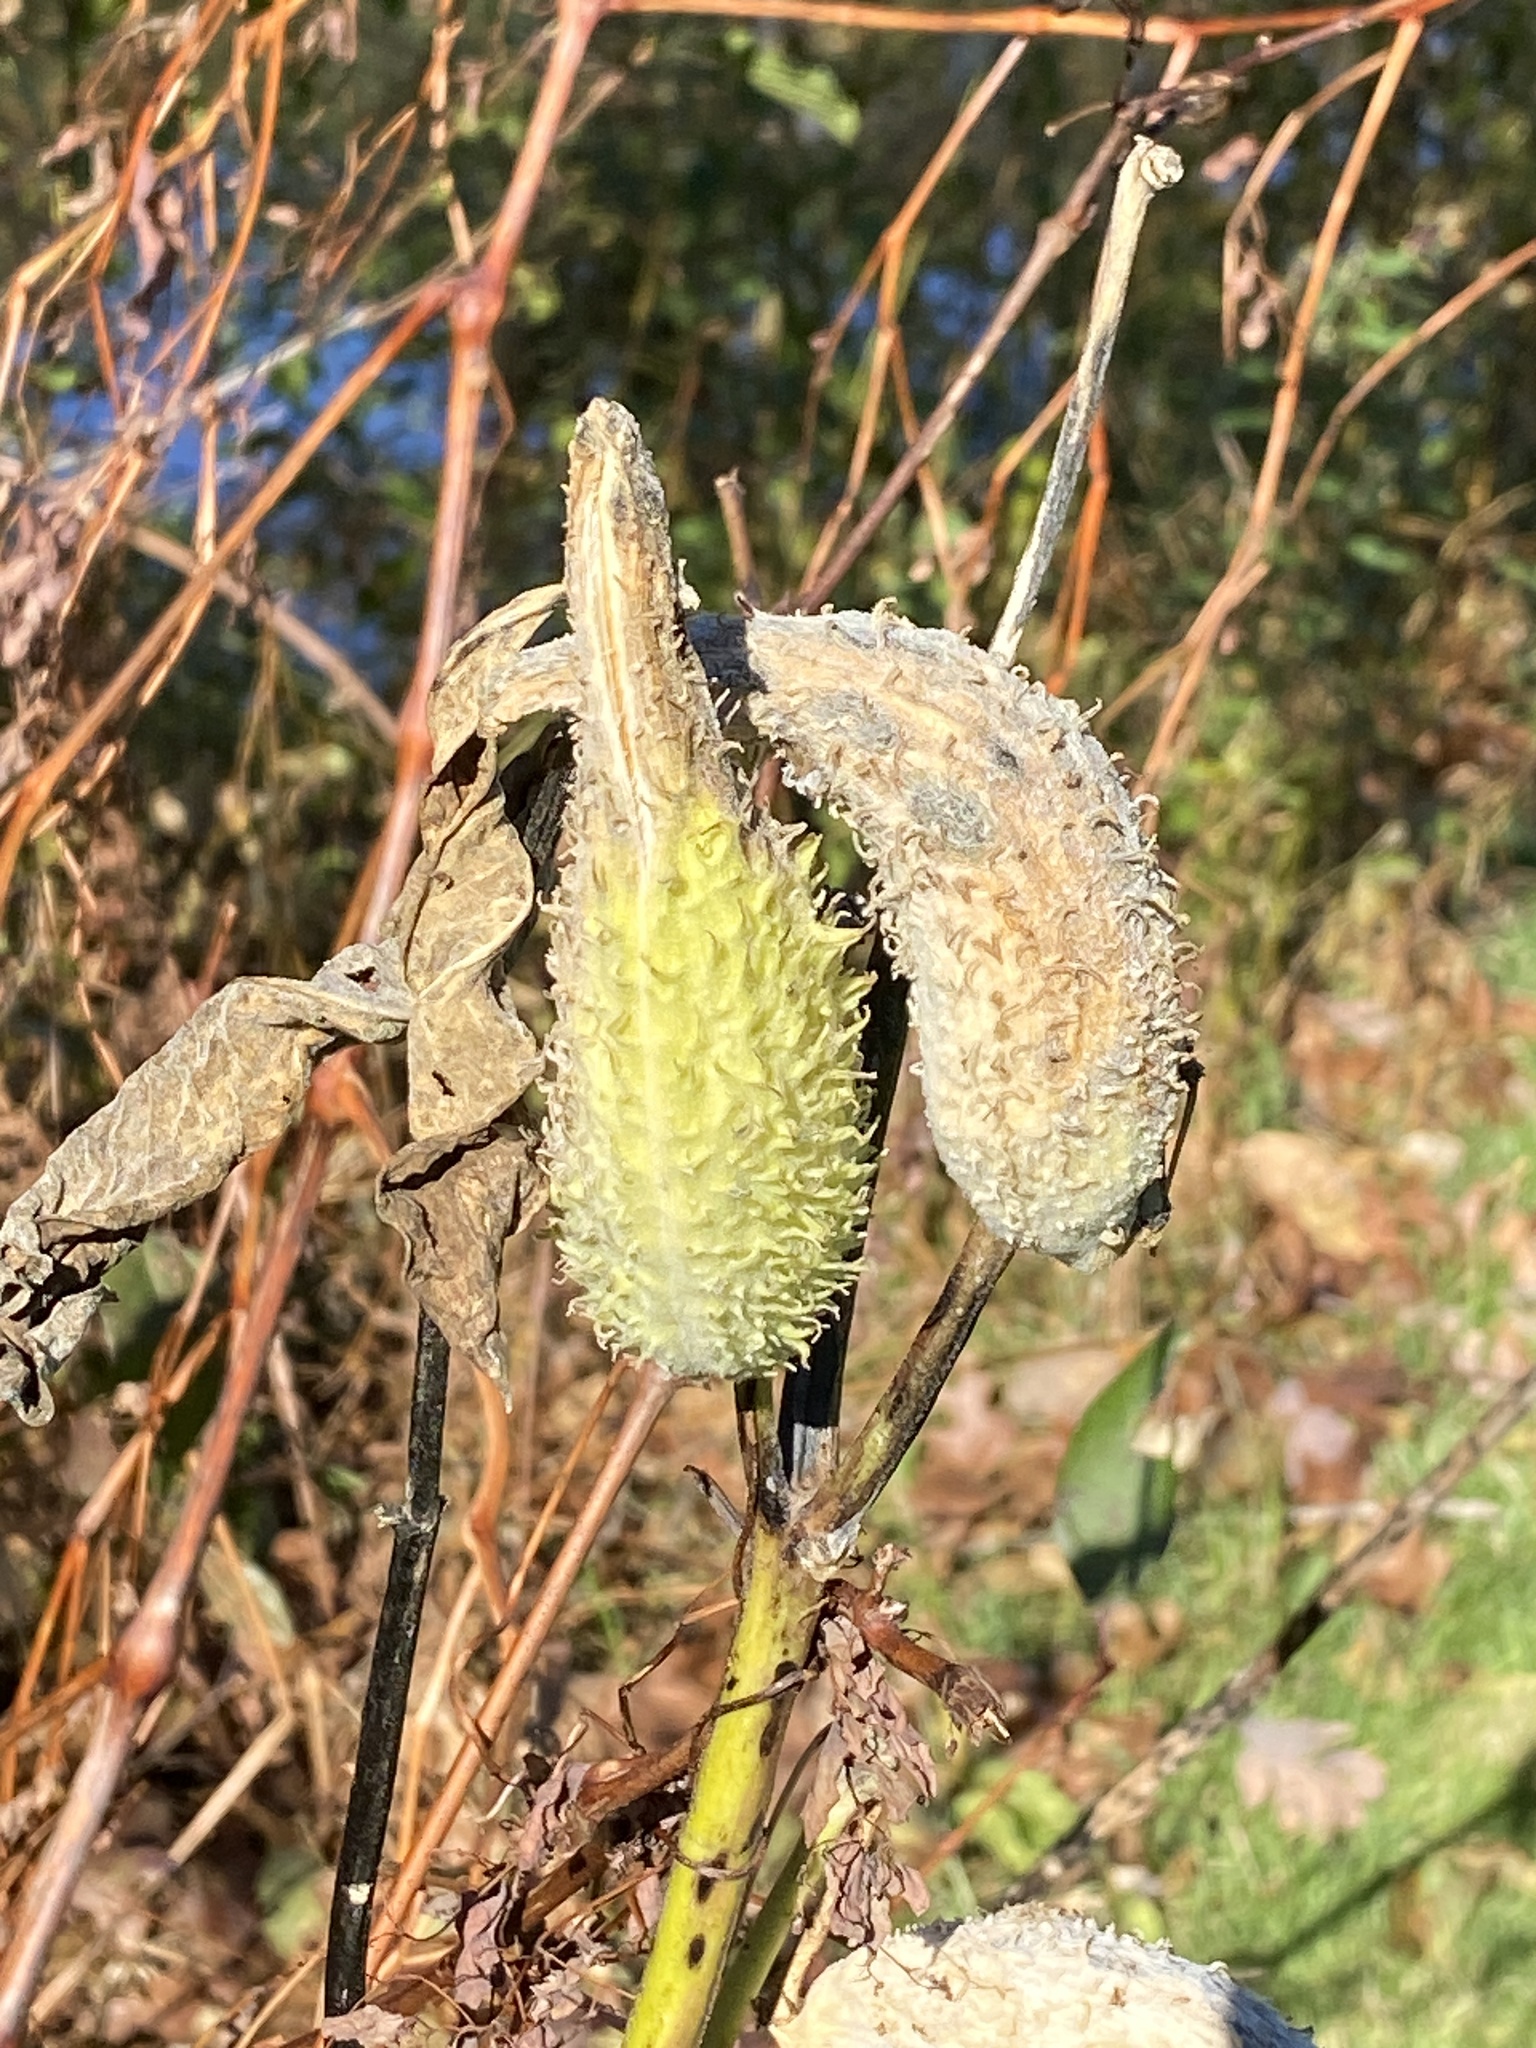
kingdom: Plantae
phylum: Tracheophyta
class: Magnoliopsida
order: Gentianales
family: Apocynaceae
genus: Asclepias
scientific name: Asclepias syriaca
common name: Common milkweed
